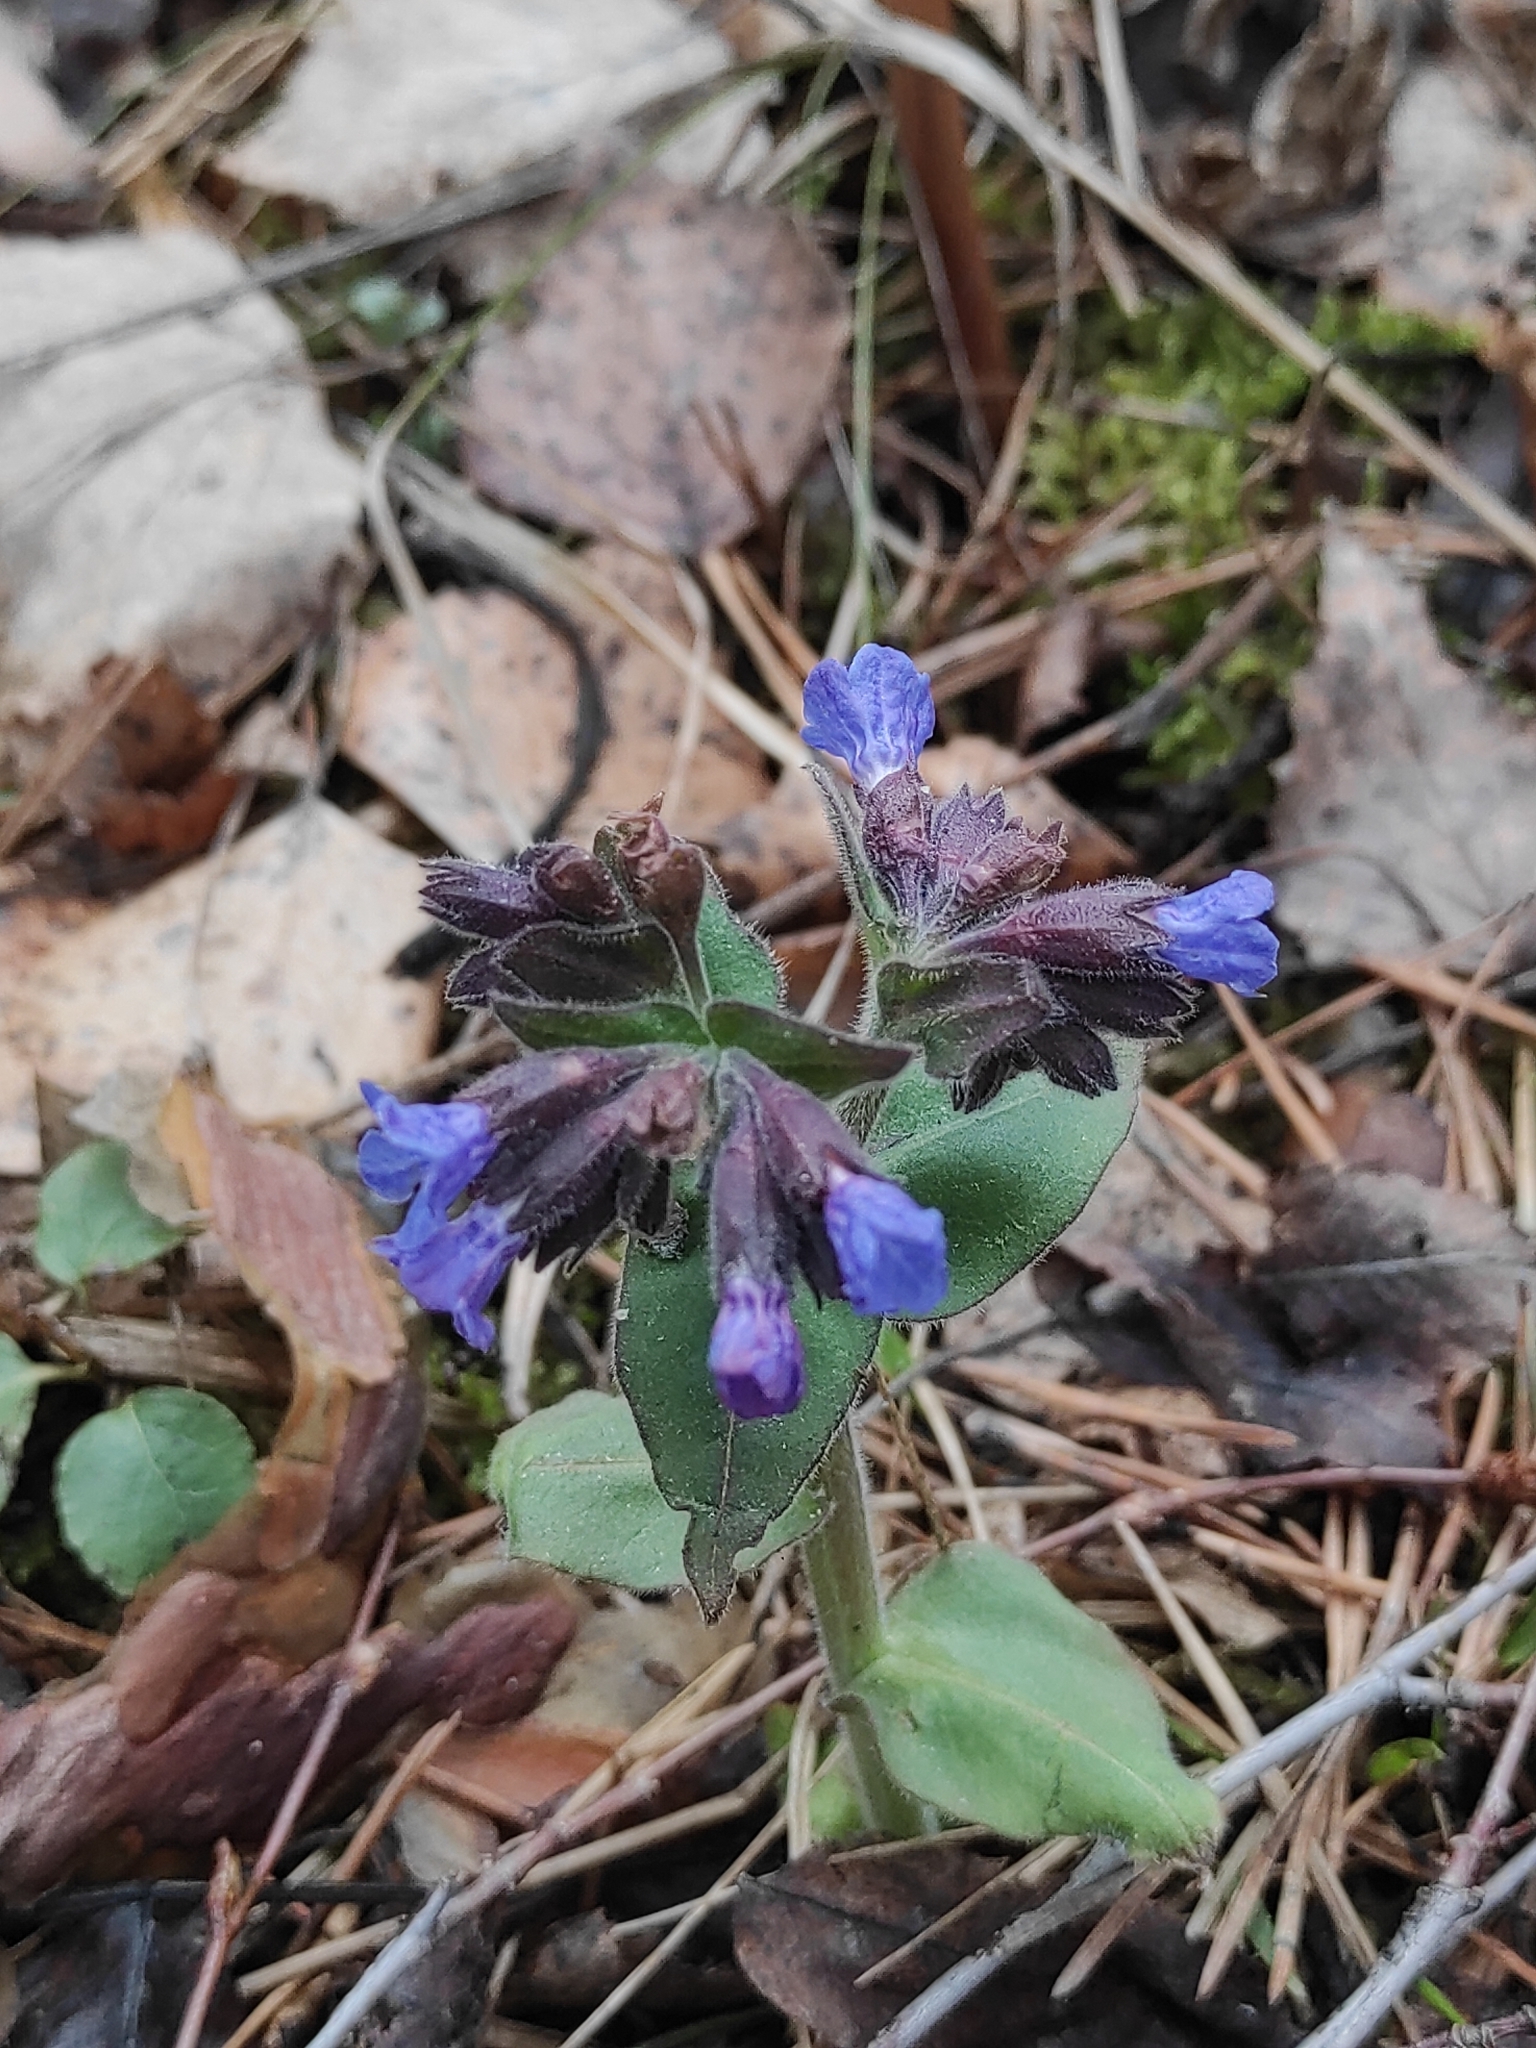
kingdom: Plantae
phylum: Tracheophyta
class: Magnoliopsida
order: Boraginales
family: Boraginaceae
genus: Pulmonaria
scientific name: Pulmonaria mollis
